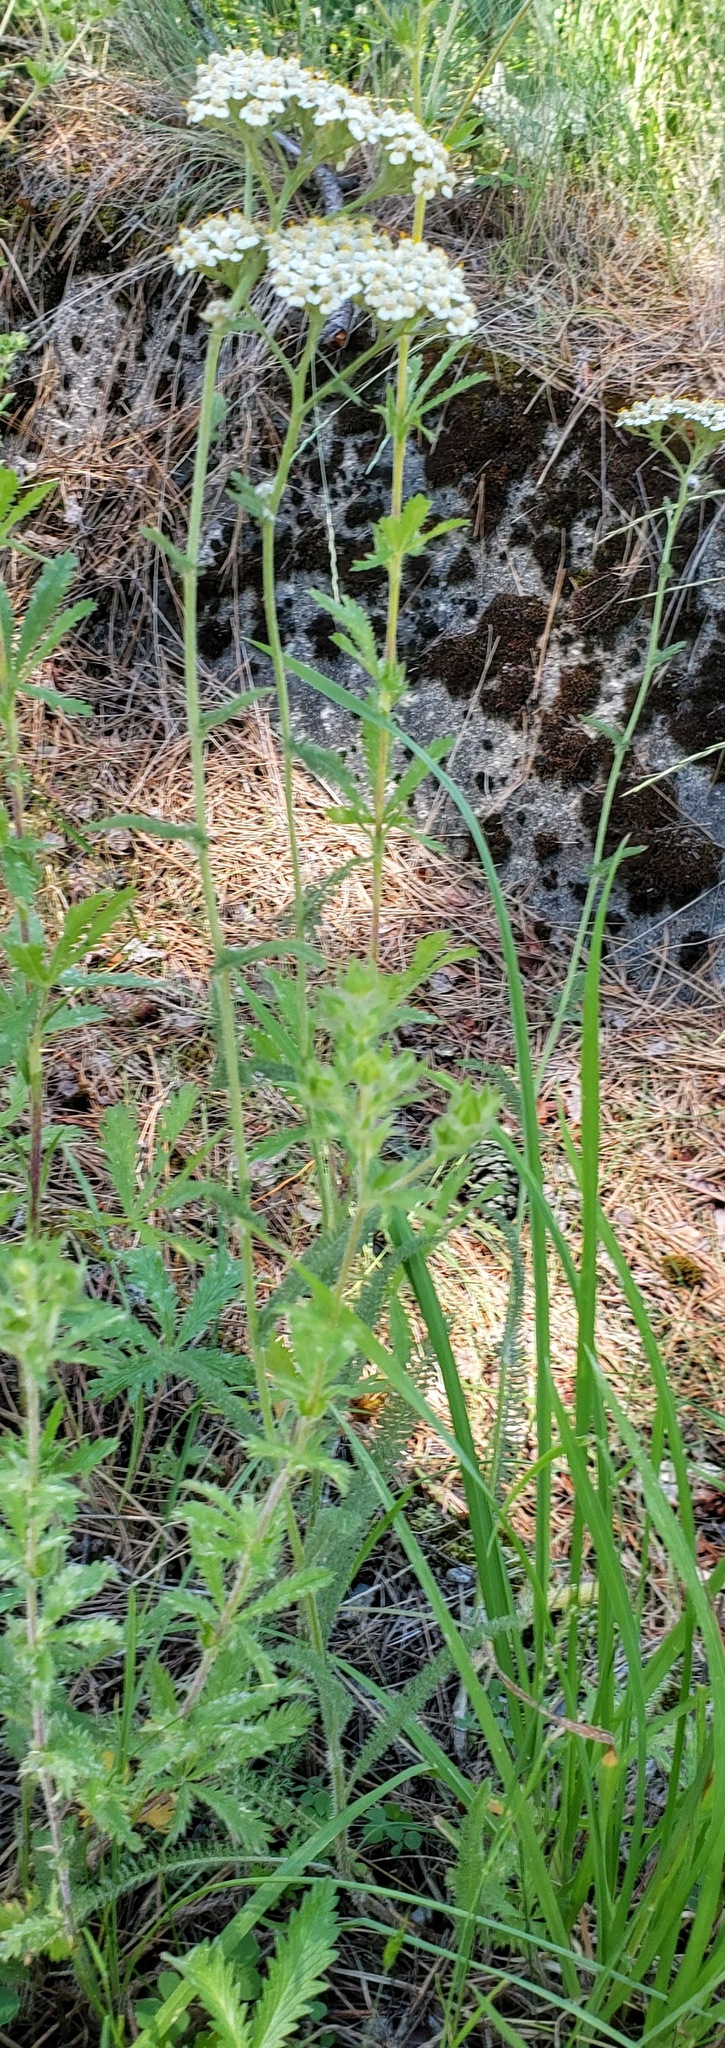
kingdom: Plantae
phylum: Tracheophyta
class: Magnoliopsida
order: Asterales
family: Asteraceae
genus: Achillea
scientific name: Achillea millefolium
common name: Yarrow
